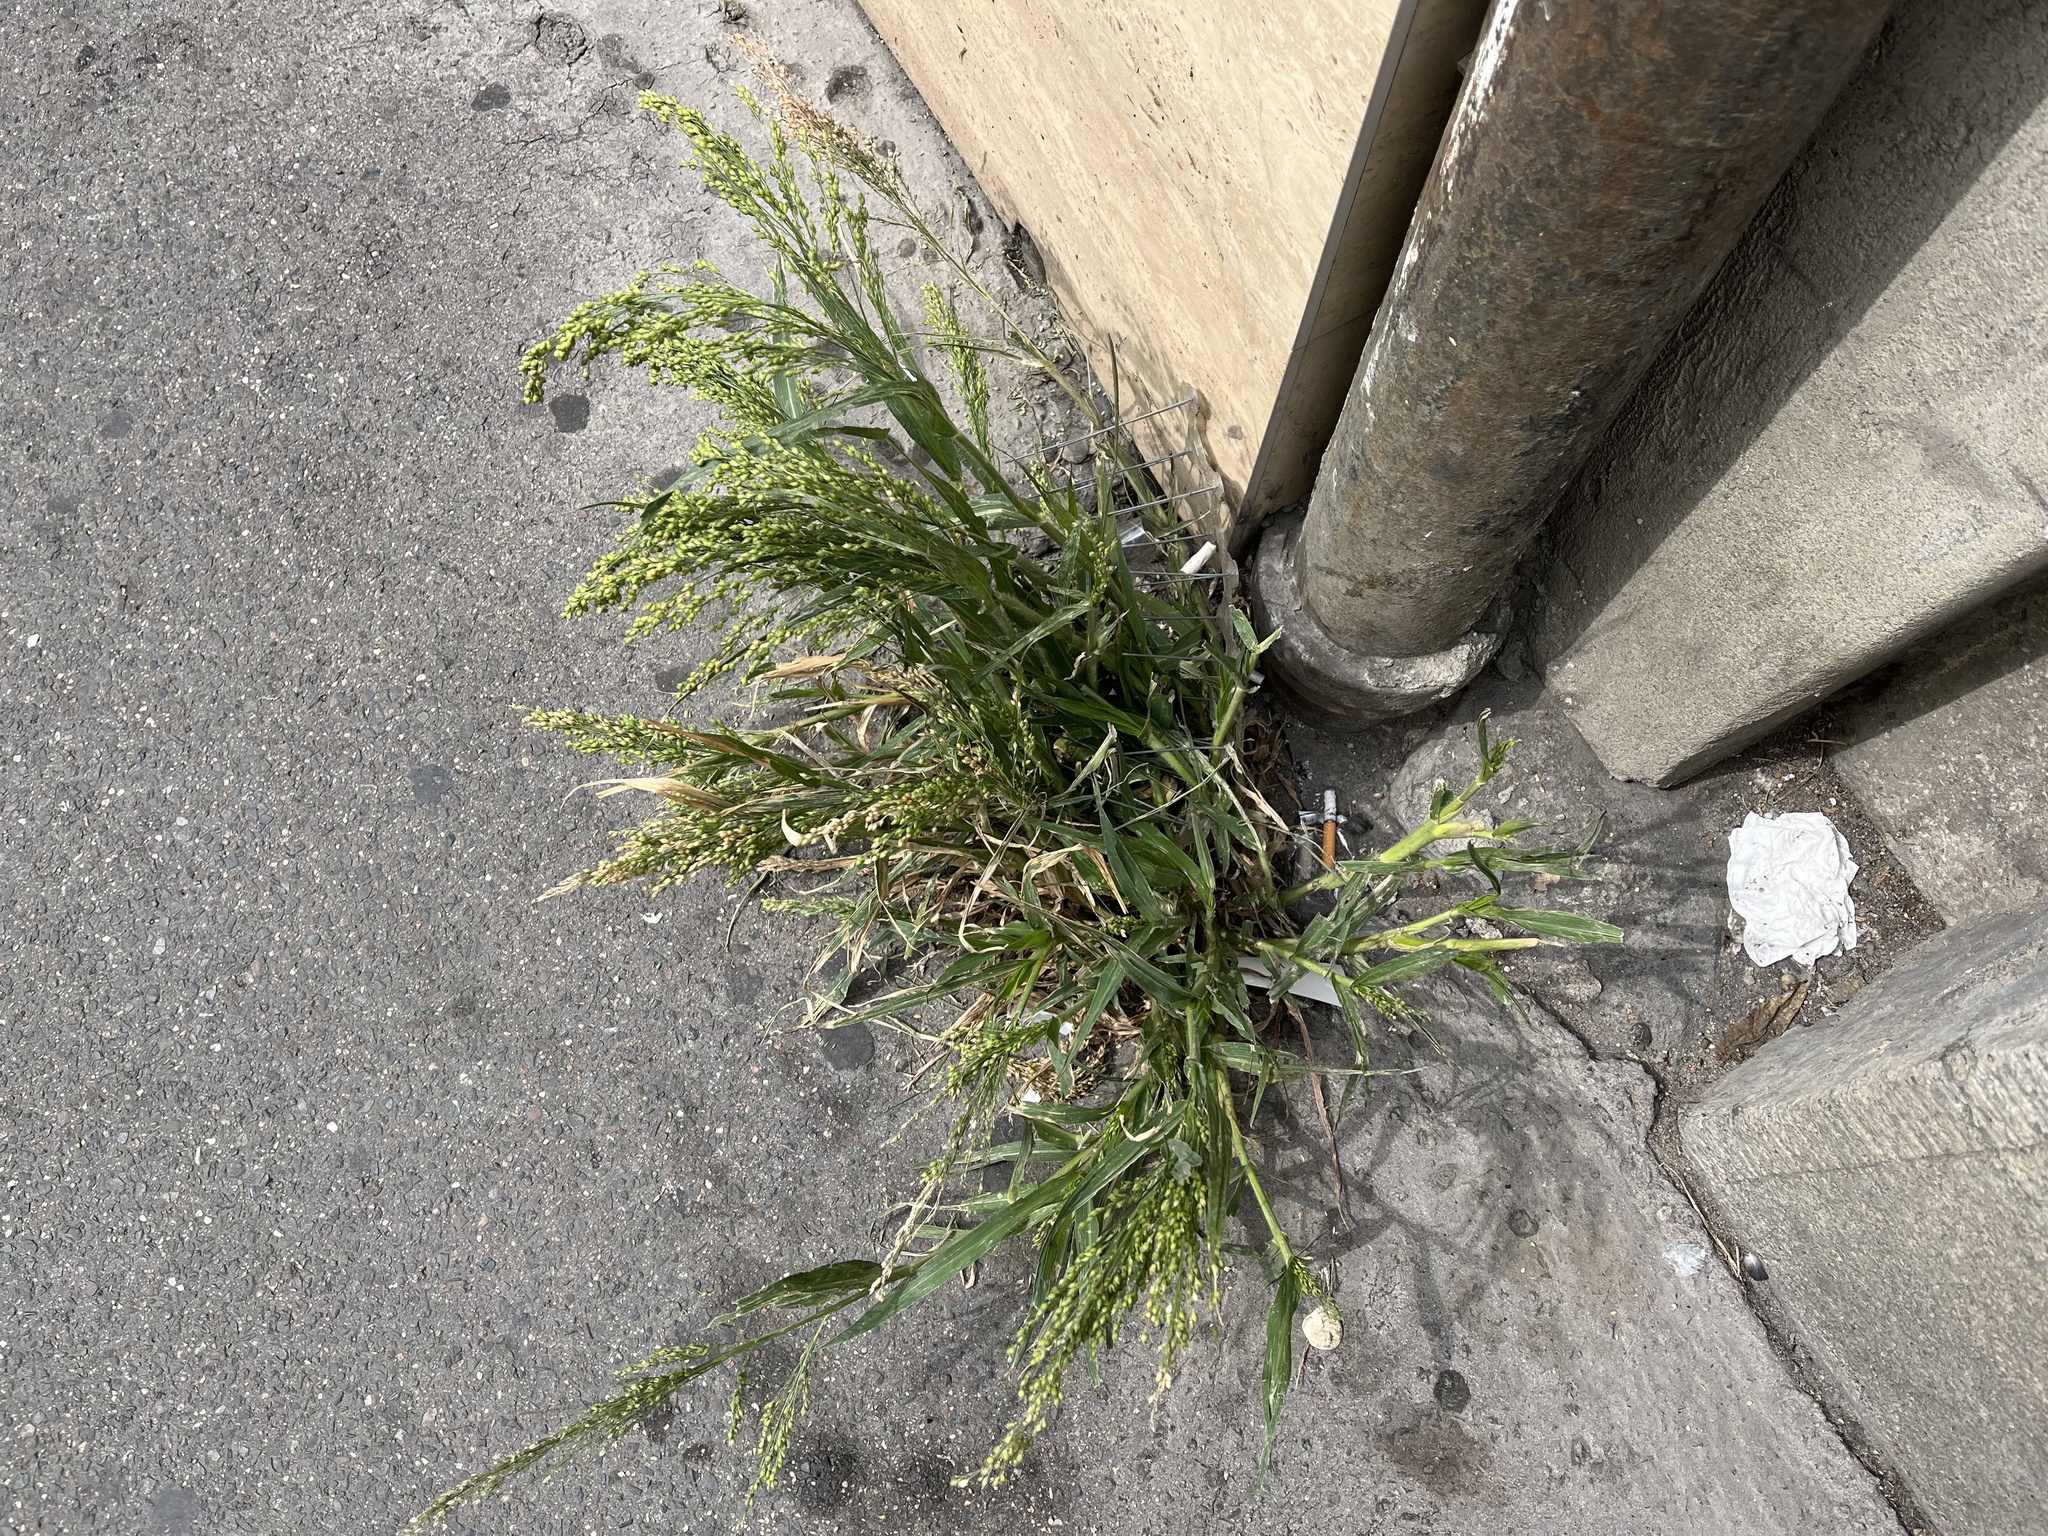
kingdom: Plantae
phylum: Tracheophyta
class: Liliopsida
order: Poales
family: Poaceae
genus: Panicum
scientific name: Panicum miliaceum
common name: Common millet
